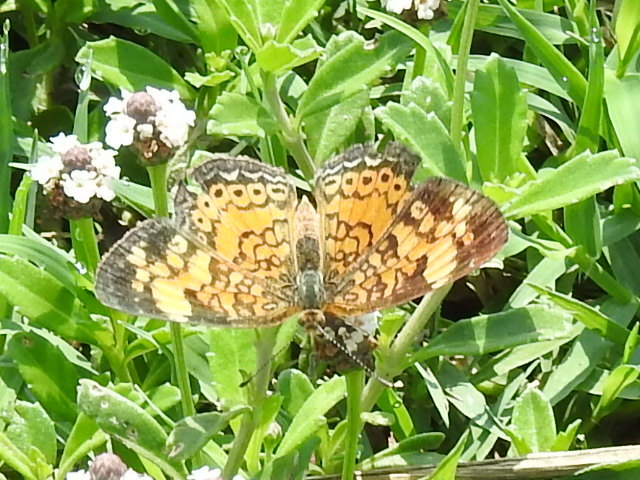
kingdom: Animalia
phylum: Arthropoda
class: Insecta
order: Lepidoptera
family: Nymphalidae
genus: Phyciodes
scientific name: Phyciodes tharos
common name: Pearl crescent
